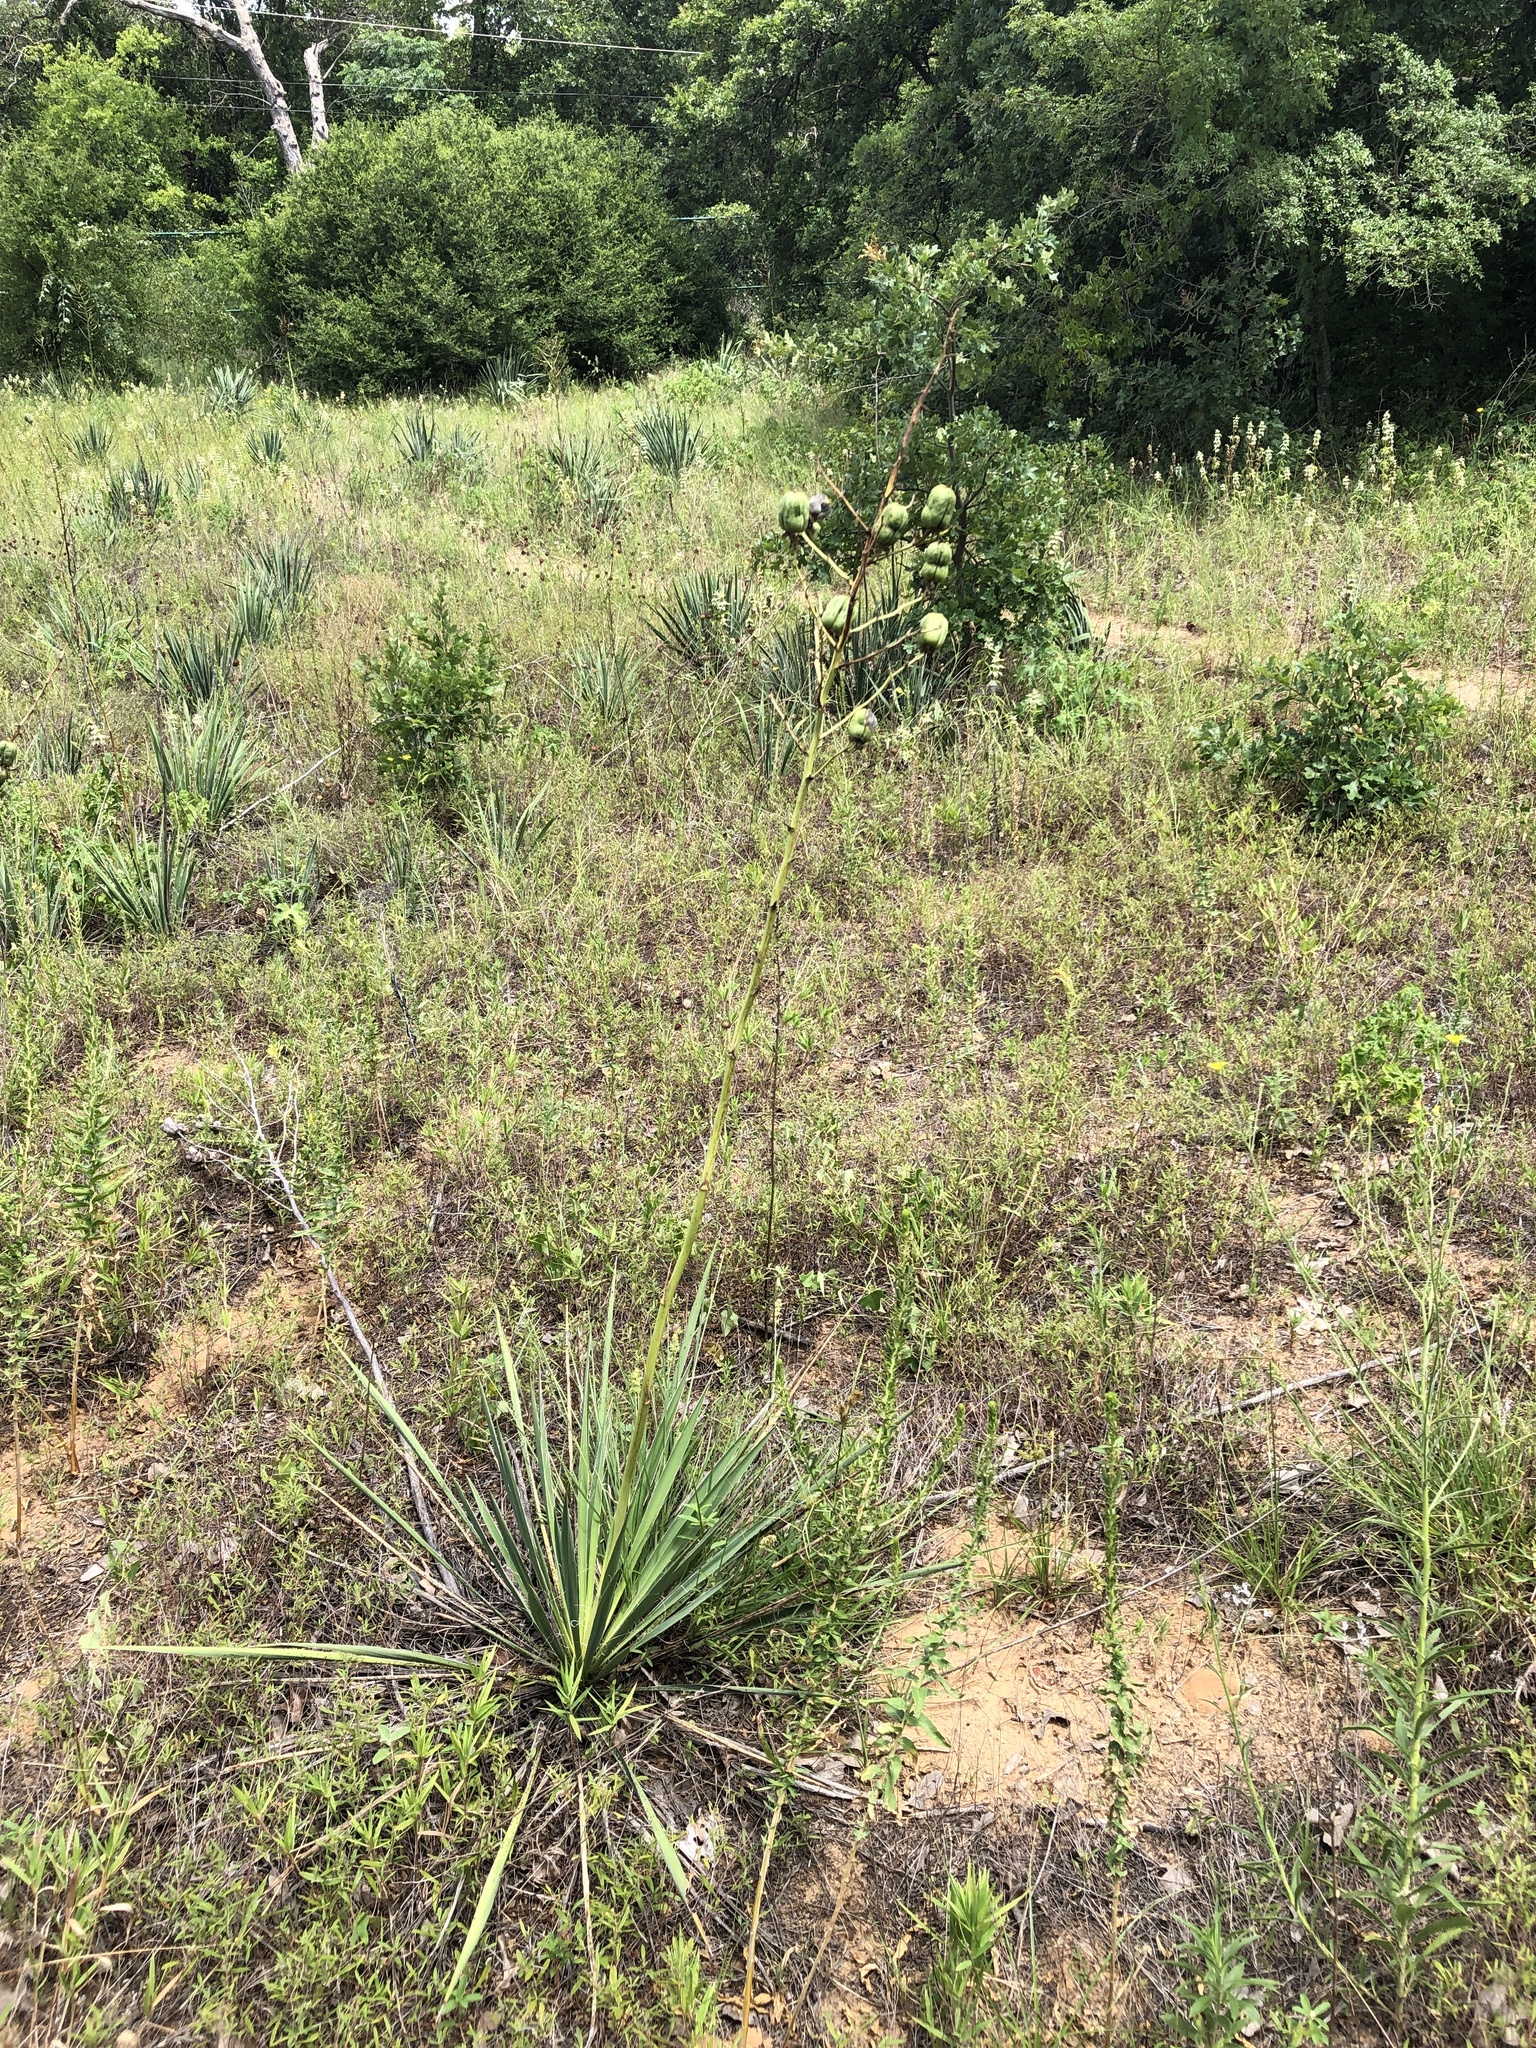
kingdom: Plantae
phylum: Tracheophyta
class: Liliopsida
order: Asparagales
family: Asparagaceae
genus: Yucca
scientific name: Yucca necopina
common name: Glen rose yucca
